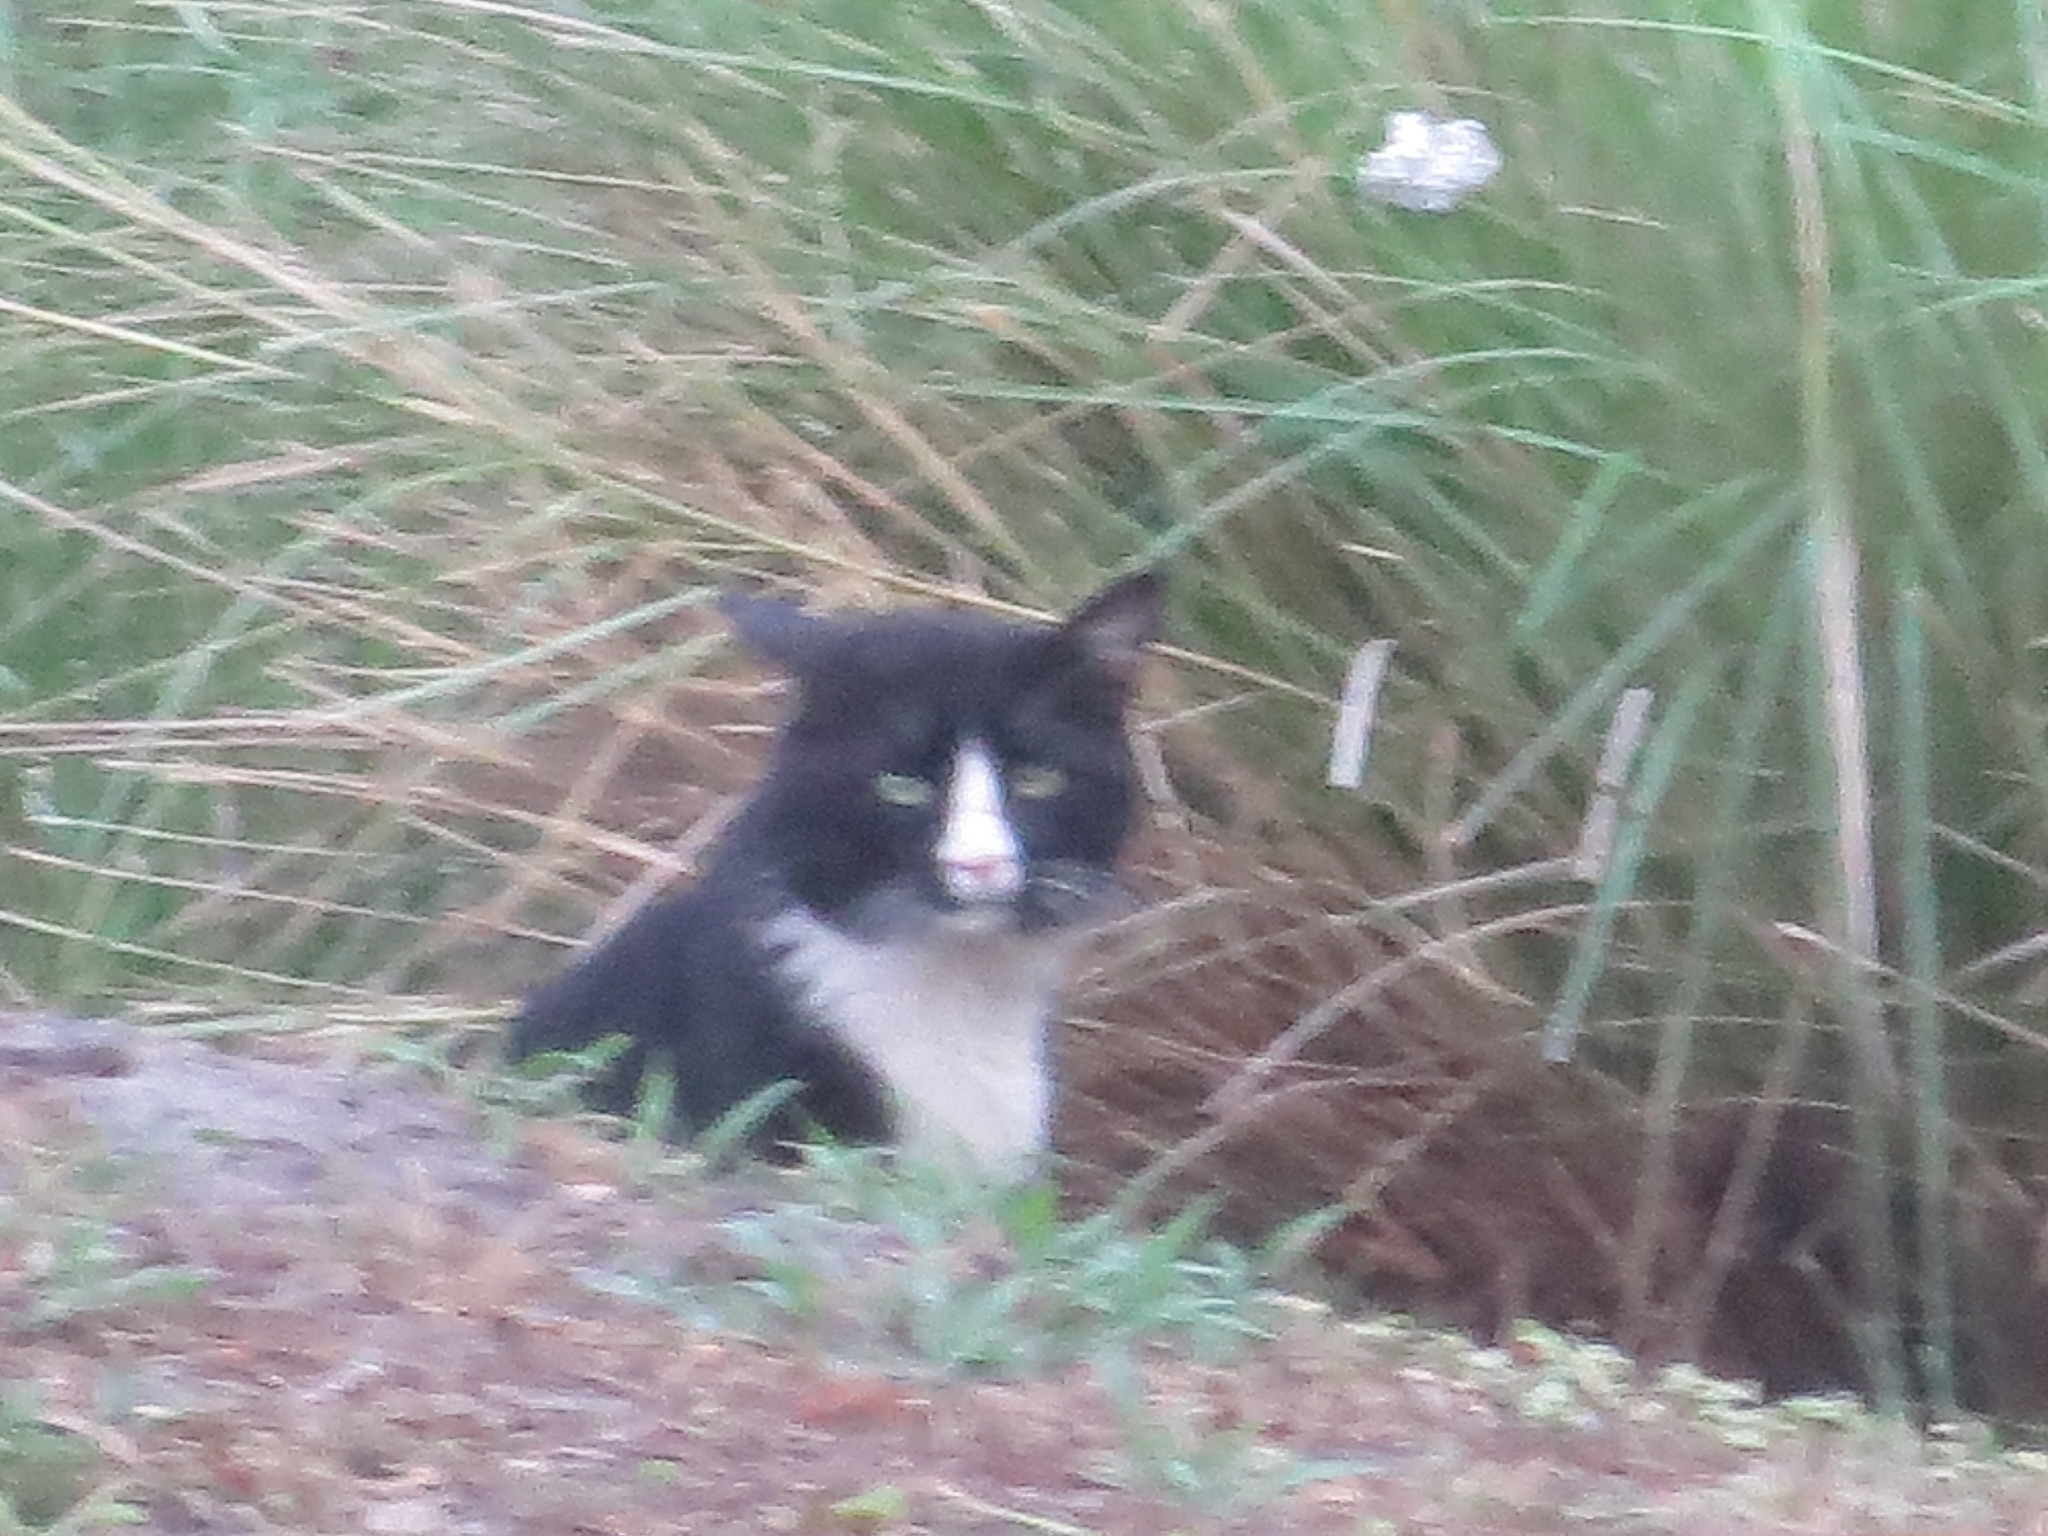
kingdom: Animalia
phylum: Chordata
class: Mammalia
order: Carnivora
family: Felidae
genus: Felis
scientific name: Felis catus
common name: Domestic cat
